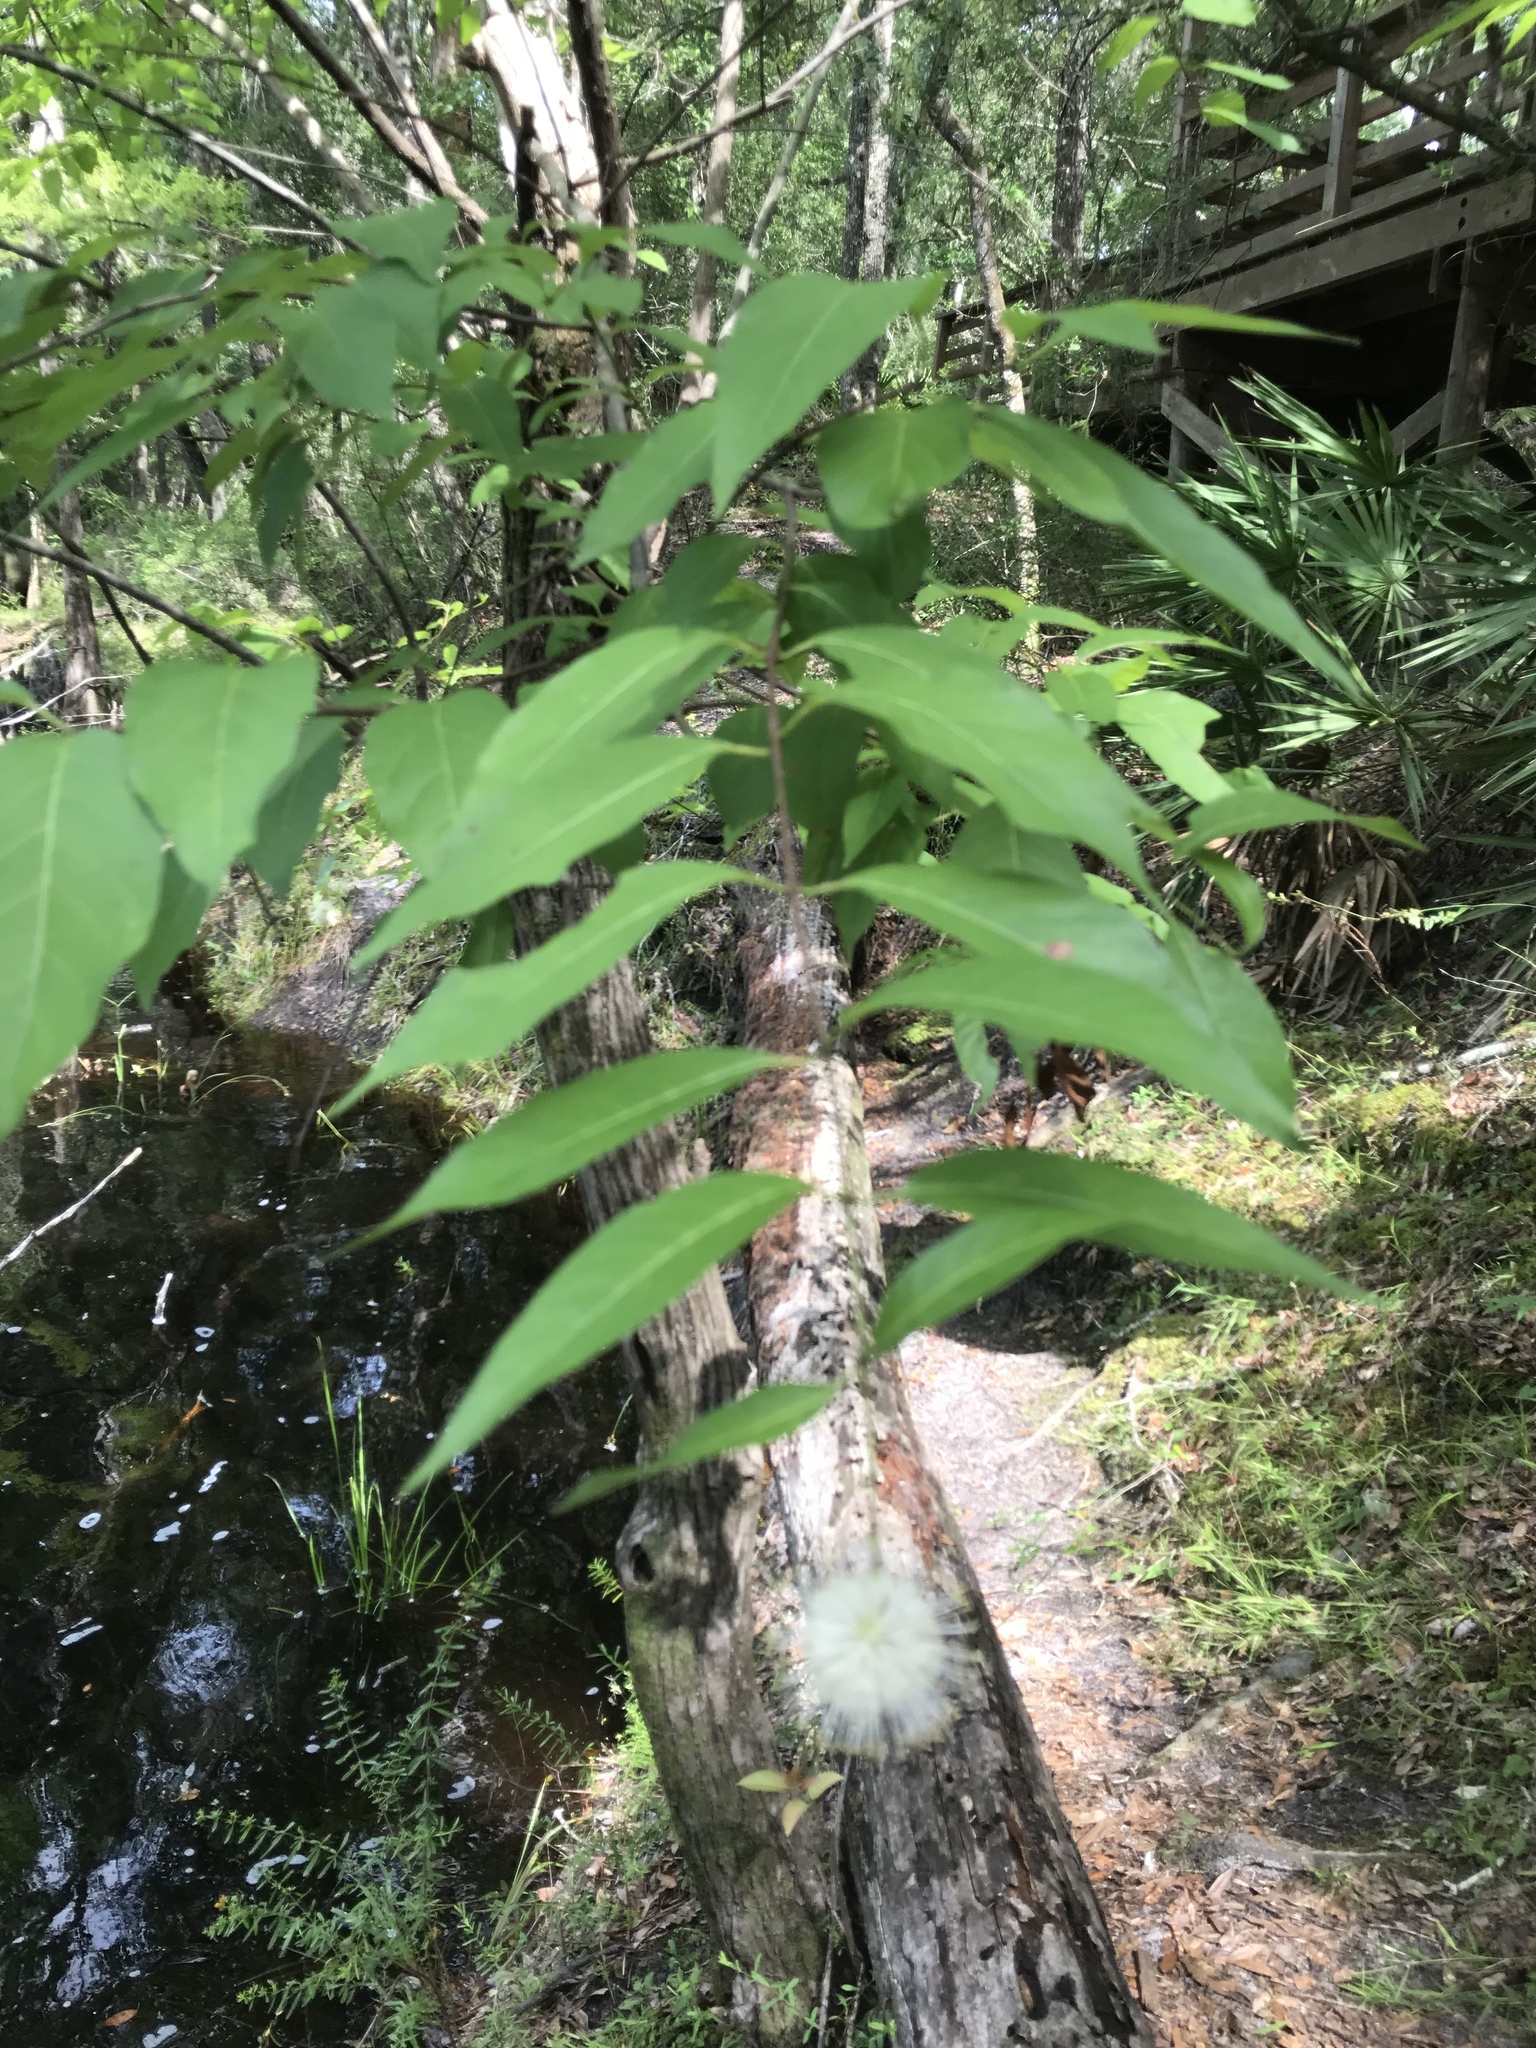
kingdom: Plantae
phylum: Tracheophyta
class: Magnoliopsida
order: Gentianales
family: Rubiaceae
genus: Cephalanthus
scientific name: Cephalanthus occidentalis
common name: Button-willow
